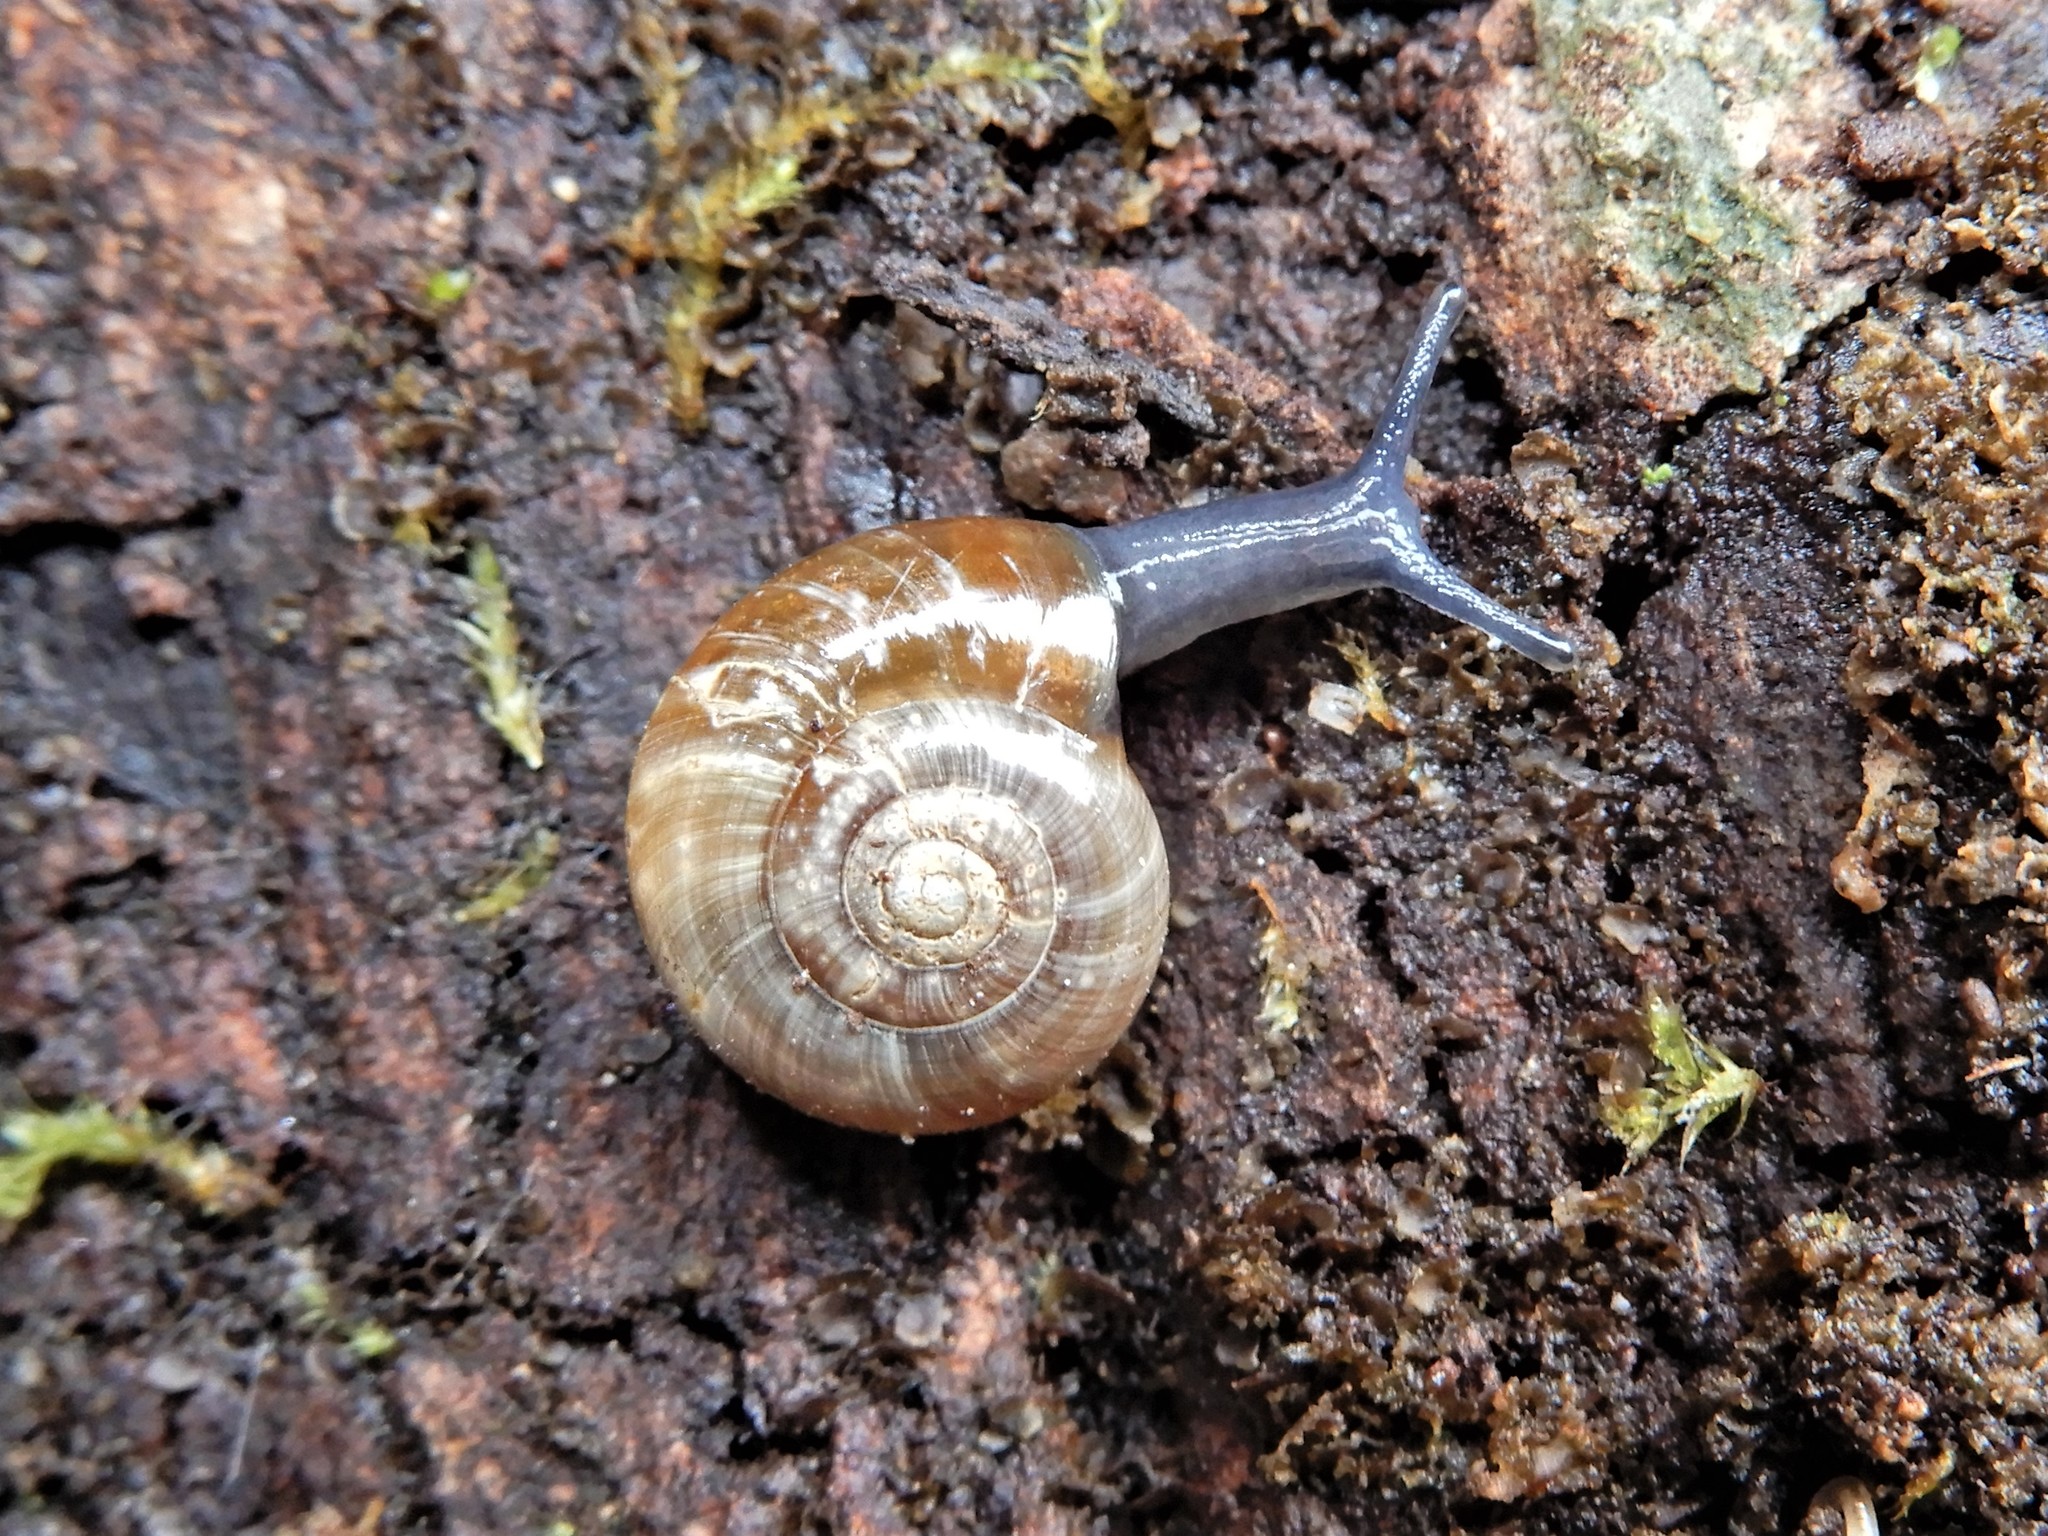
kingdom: Animalia
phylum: Mollusca
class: Gastropoda
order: Stylommatophora
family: Oxychilidae
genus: Oxychilus
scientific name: Oxychilus
